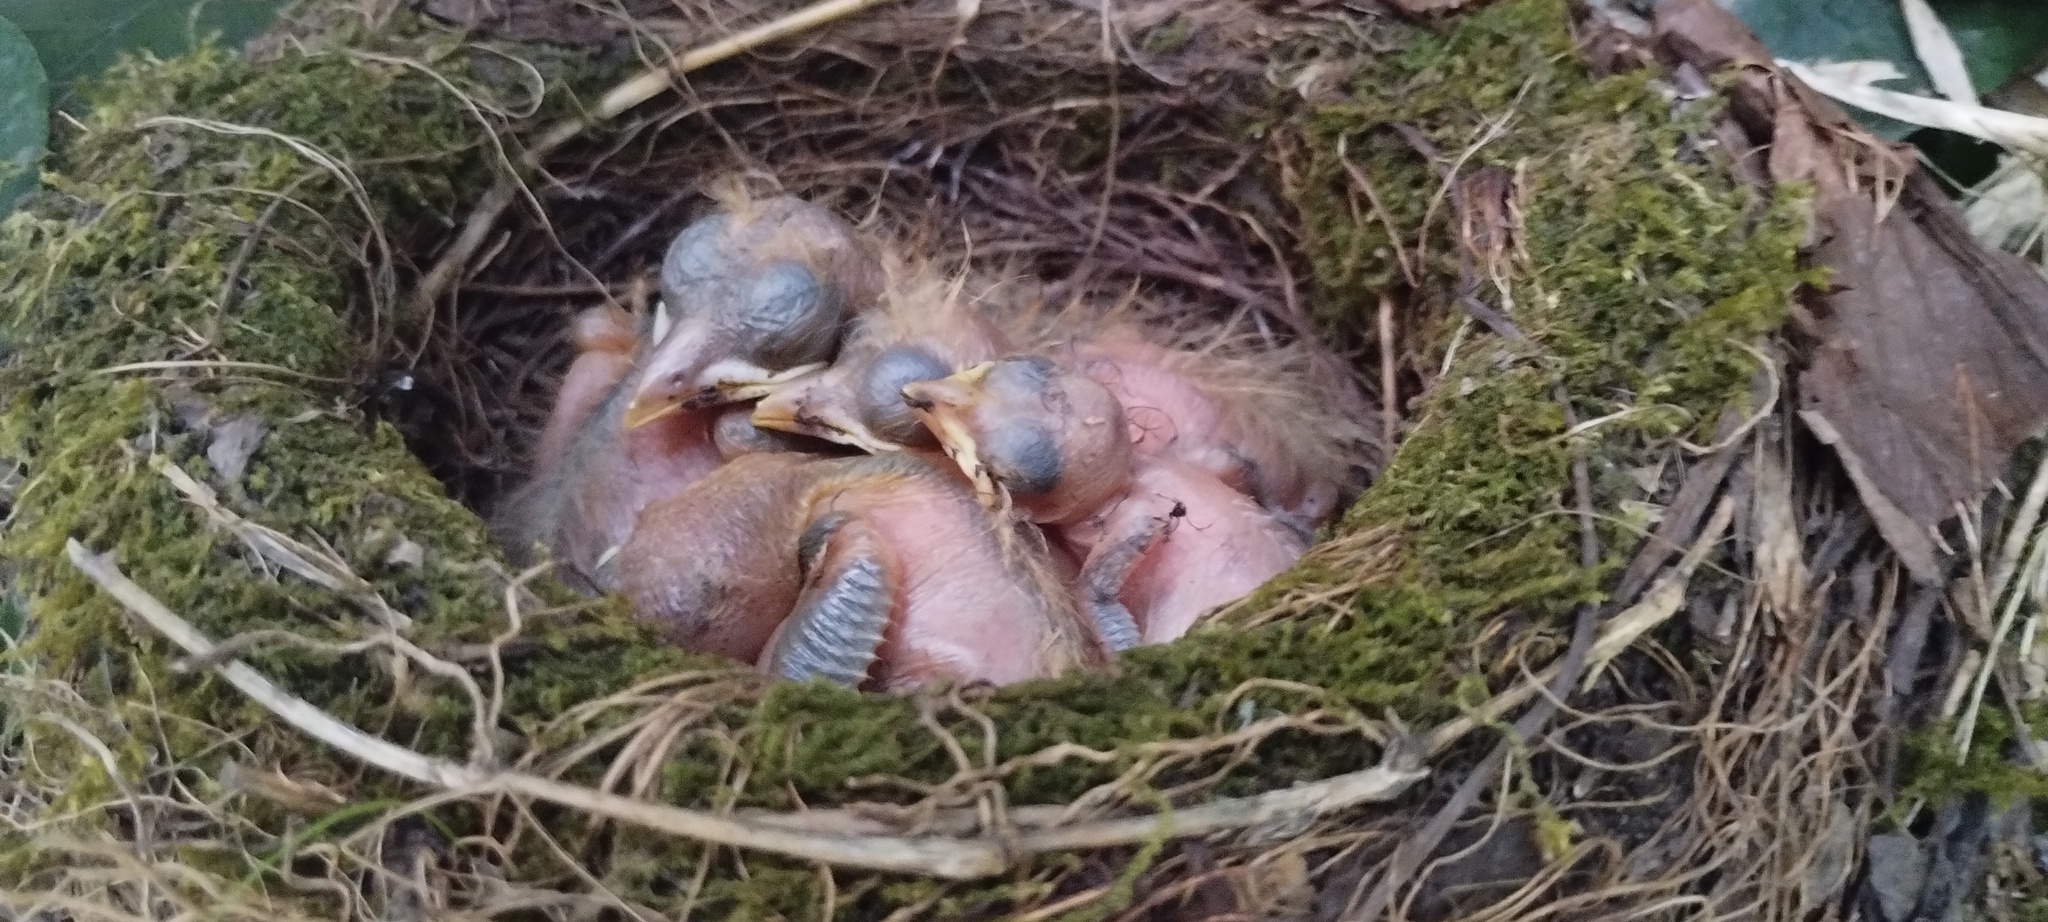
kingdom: Animalia
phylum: Chordata
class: Aves
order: Passeriformes
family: Turdidae
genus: Turdus
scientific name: Turdus rufiventris
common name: Rufous-bellied thrush
